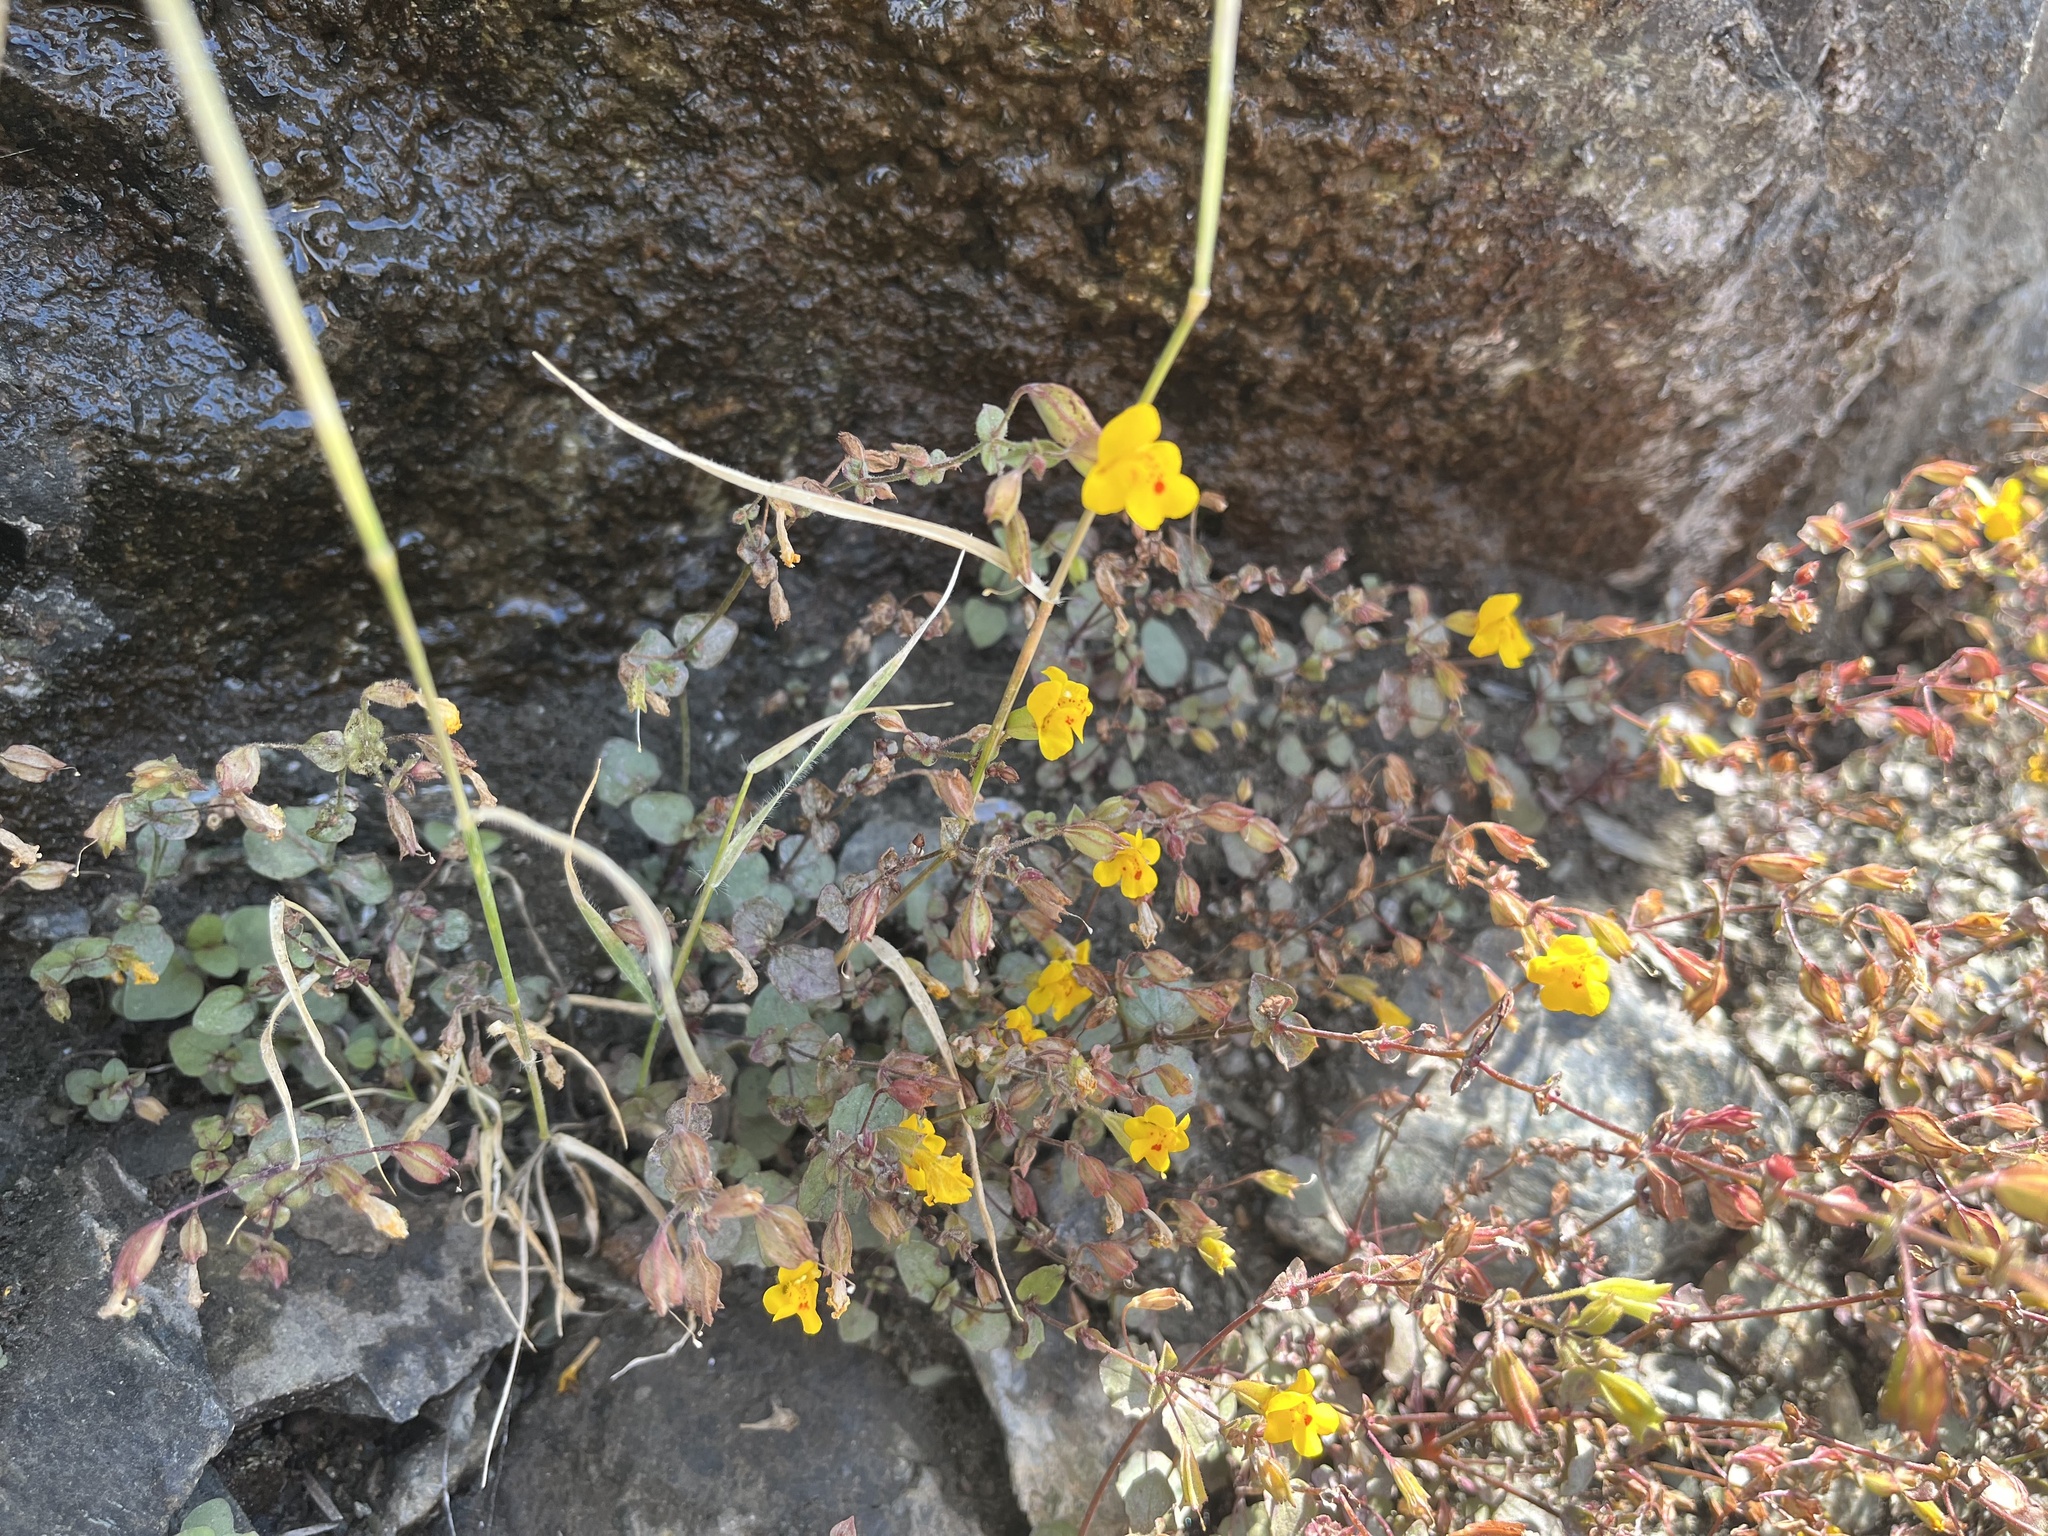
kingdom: Plantae
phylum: Tracheophyta
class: Magnoliopsida
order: Lamiales
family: Phrymaceae
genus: Erythranthe
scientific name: Erythranthe percaulis
